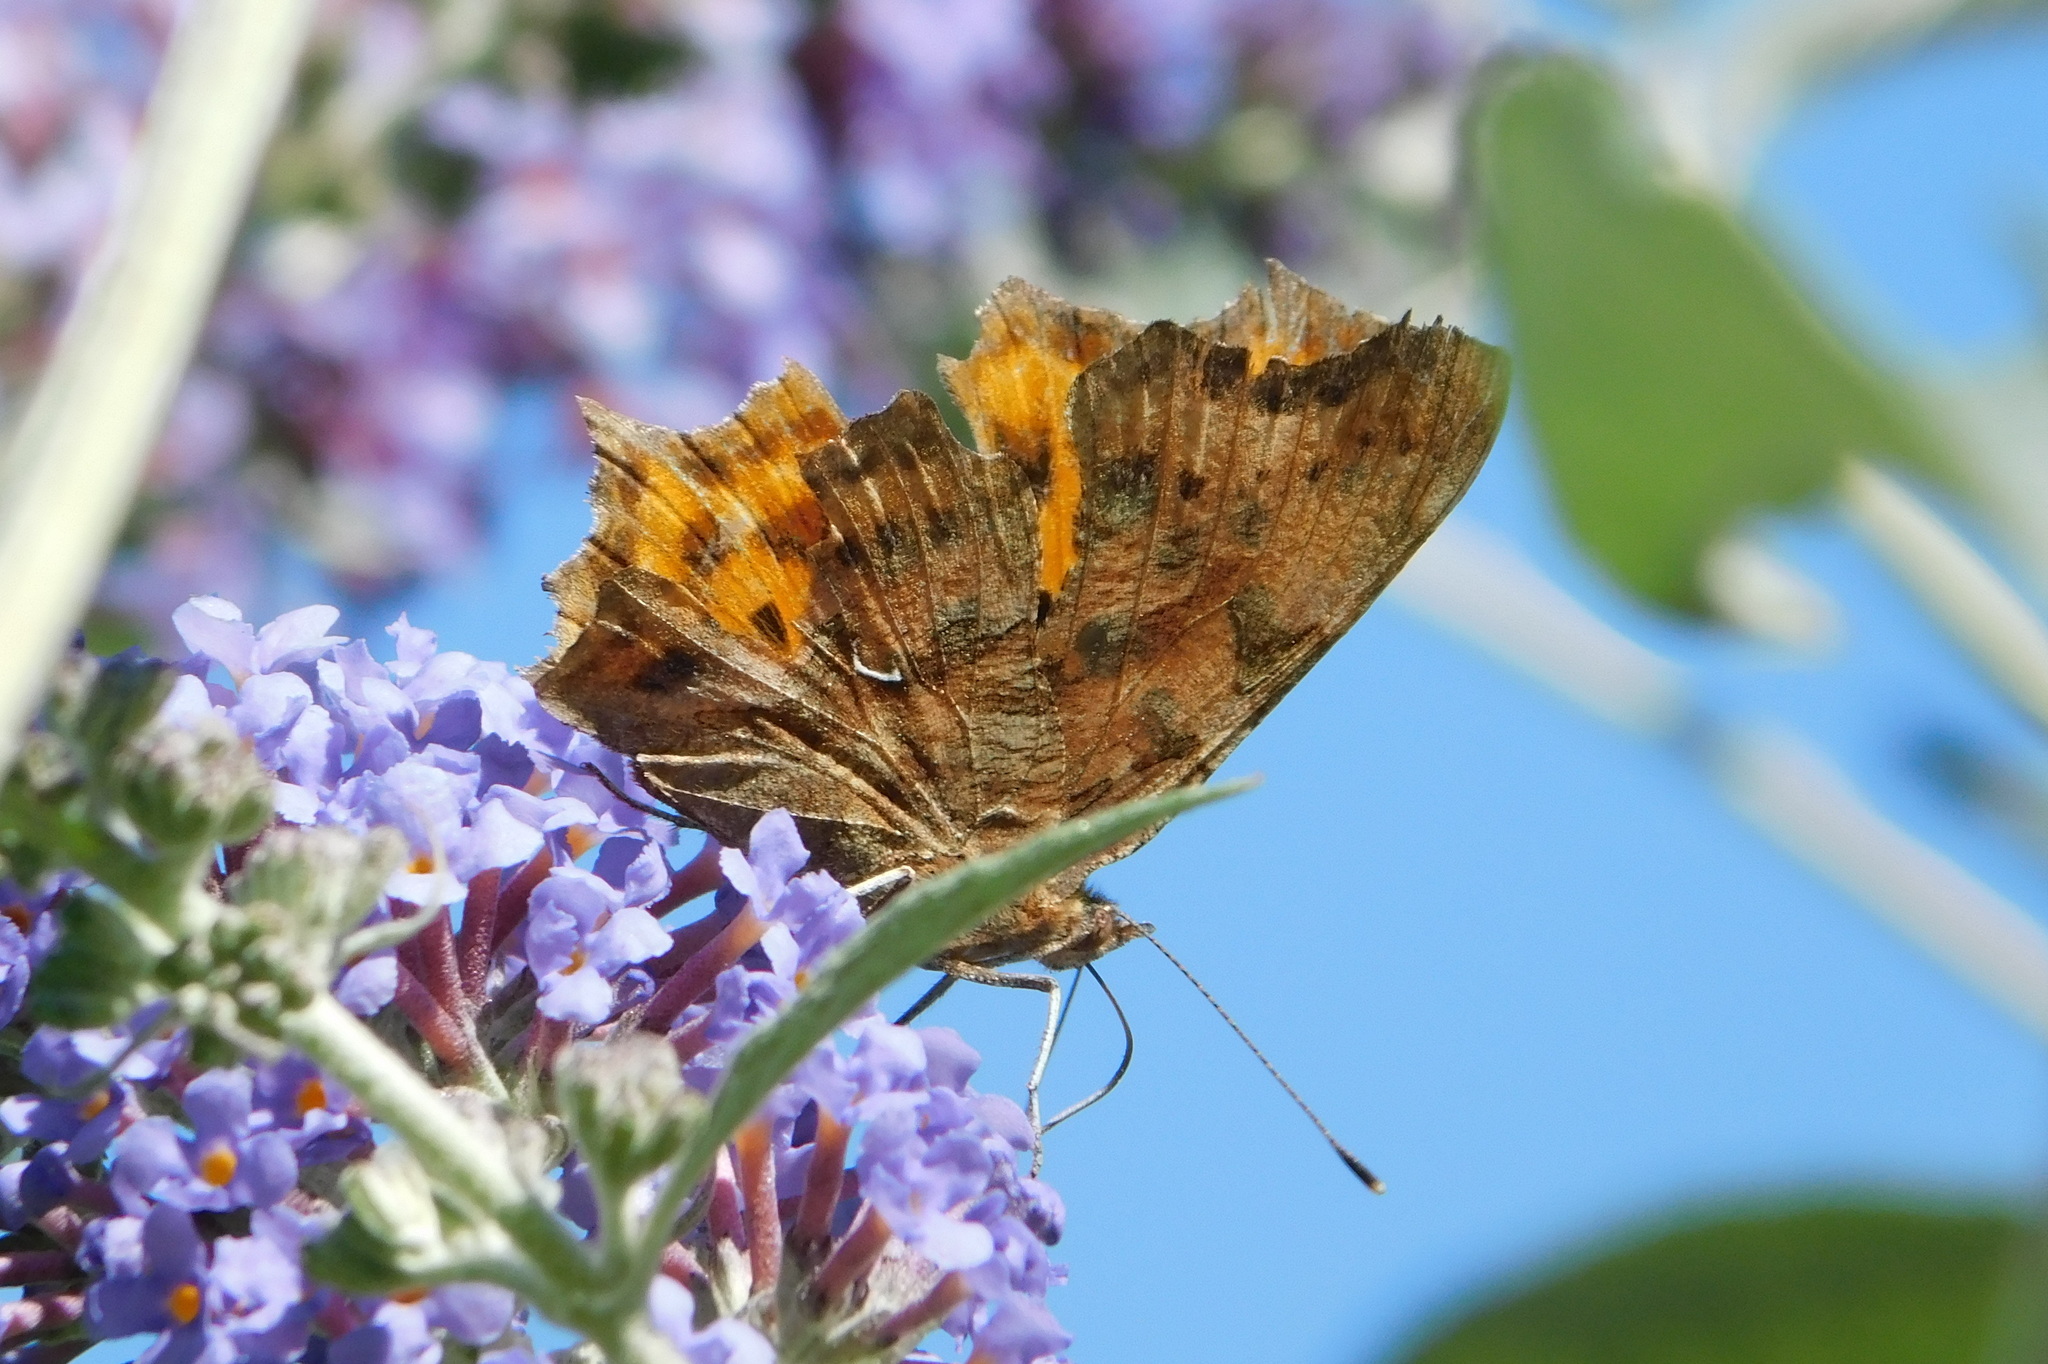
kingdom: Animalia
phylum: Arthropoda
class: Insecta
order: Lepidoptera
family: Nymphalidae
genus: Polygonia
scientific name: Polygonia c-album
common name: Comma
